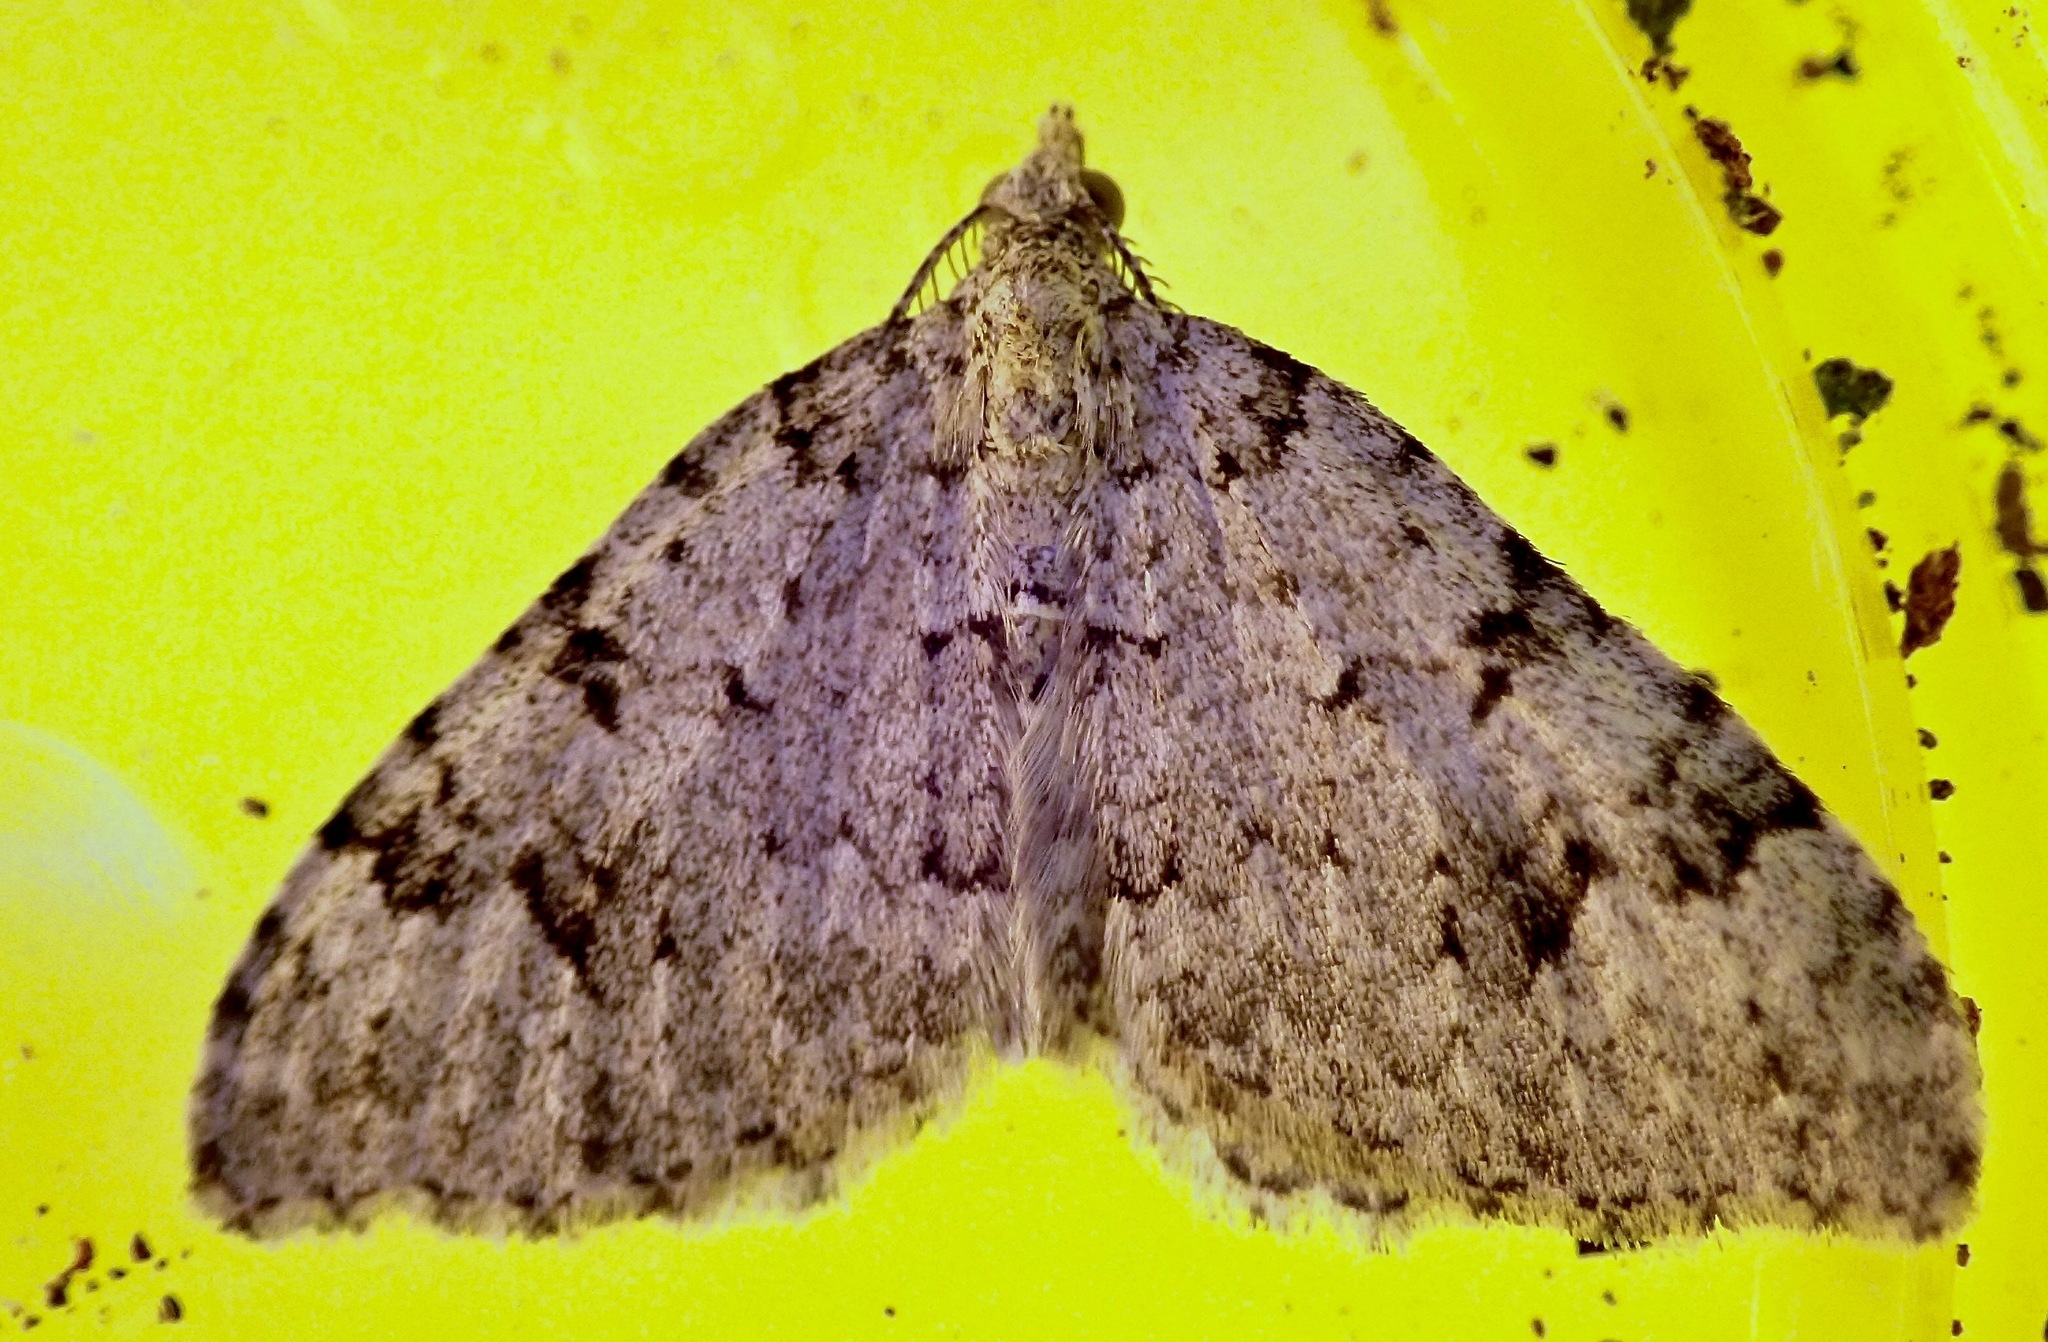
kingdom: Animalia
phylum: Arthropoda
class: Insecta
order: Lepidoptera
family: Geometridae
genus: Helastia
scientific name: Helastia cinerearia
